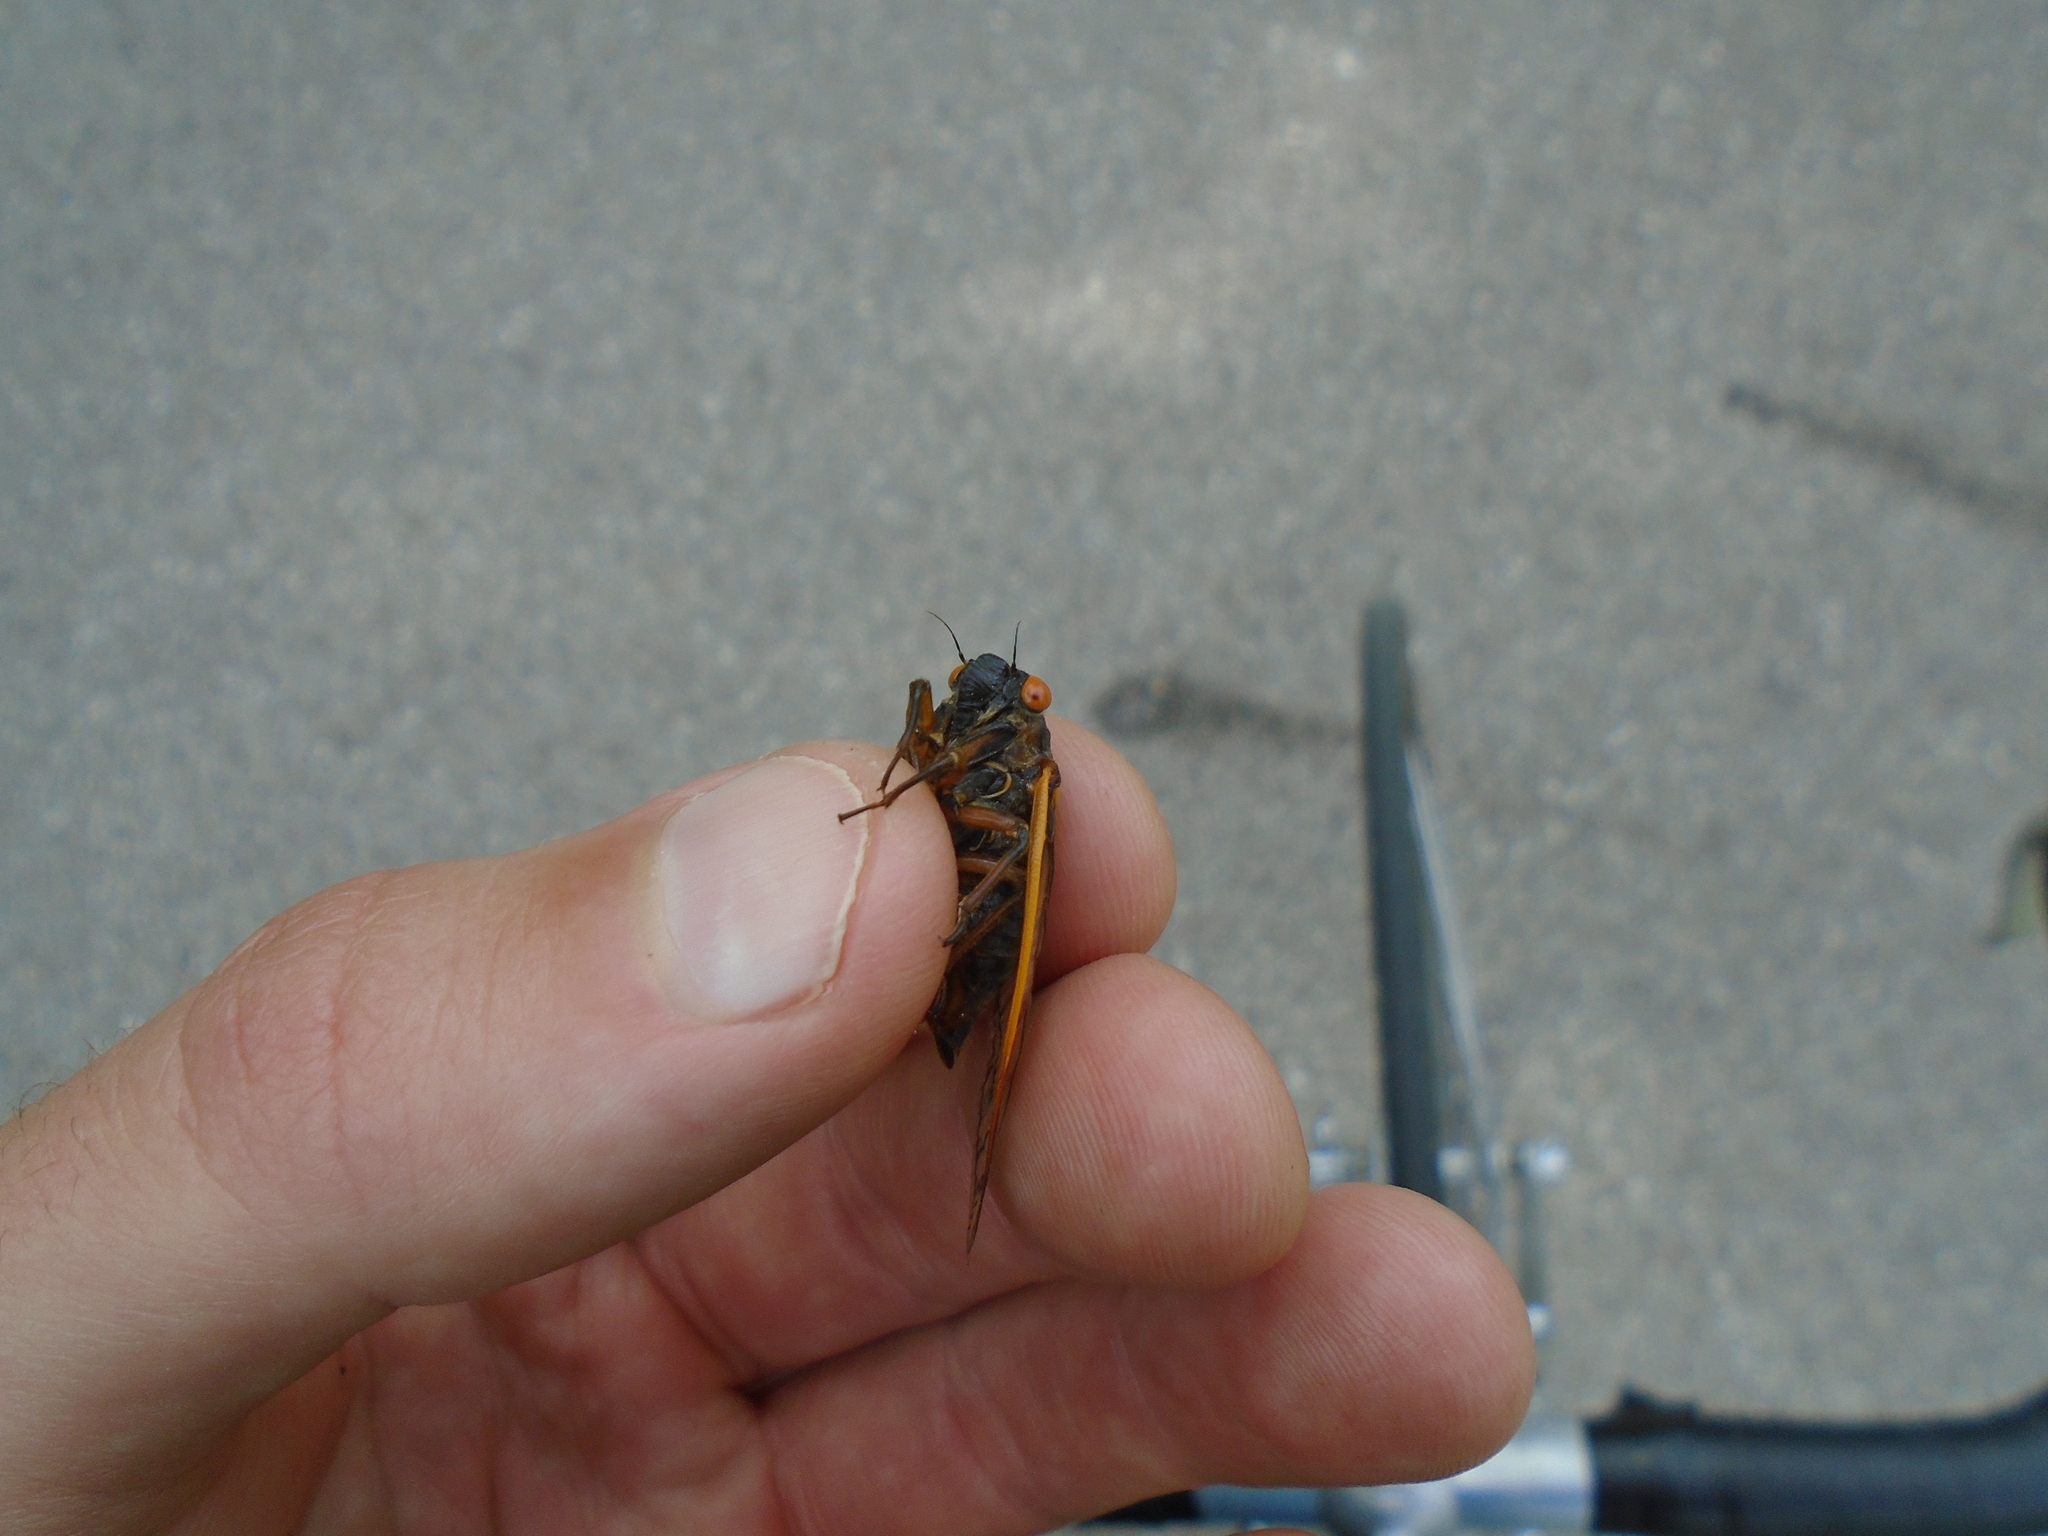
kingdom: Animalia
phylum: Arthropoda
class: Insecta
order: Hemiptera
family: Cicadidae
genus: Magicicada
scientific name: Magicicada septendecim
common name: Periodical cicada
